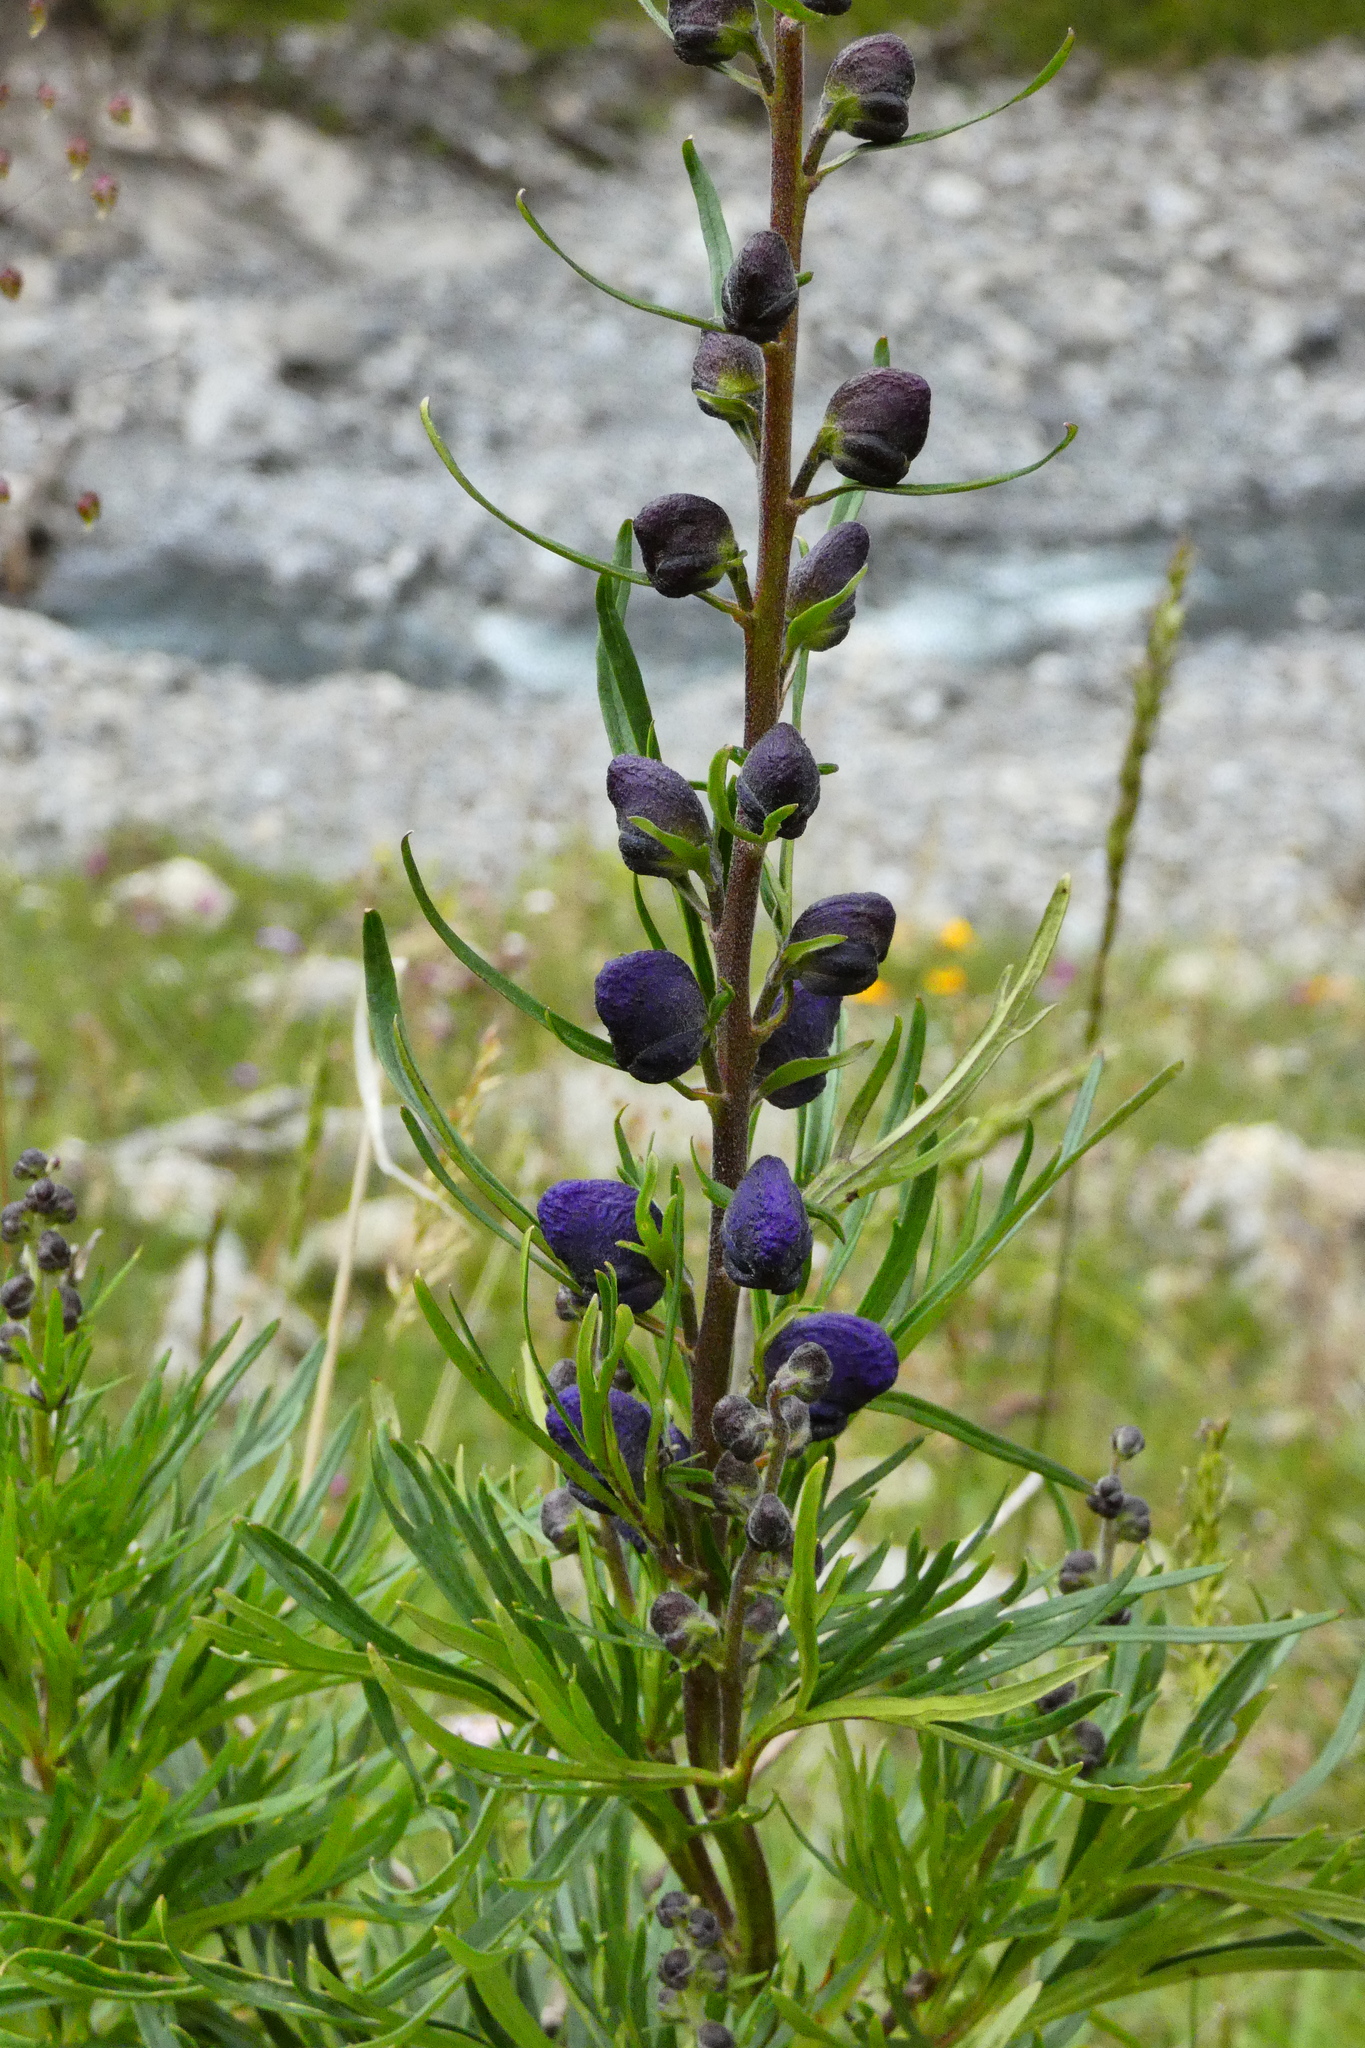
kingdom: Plantae
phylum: Tracheophyta
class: Magnoliopsida
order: Ranunculales
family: Ranunculaceae
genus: Aconitum
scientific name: Aconitum napellus
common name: Garden monkshood
